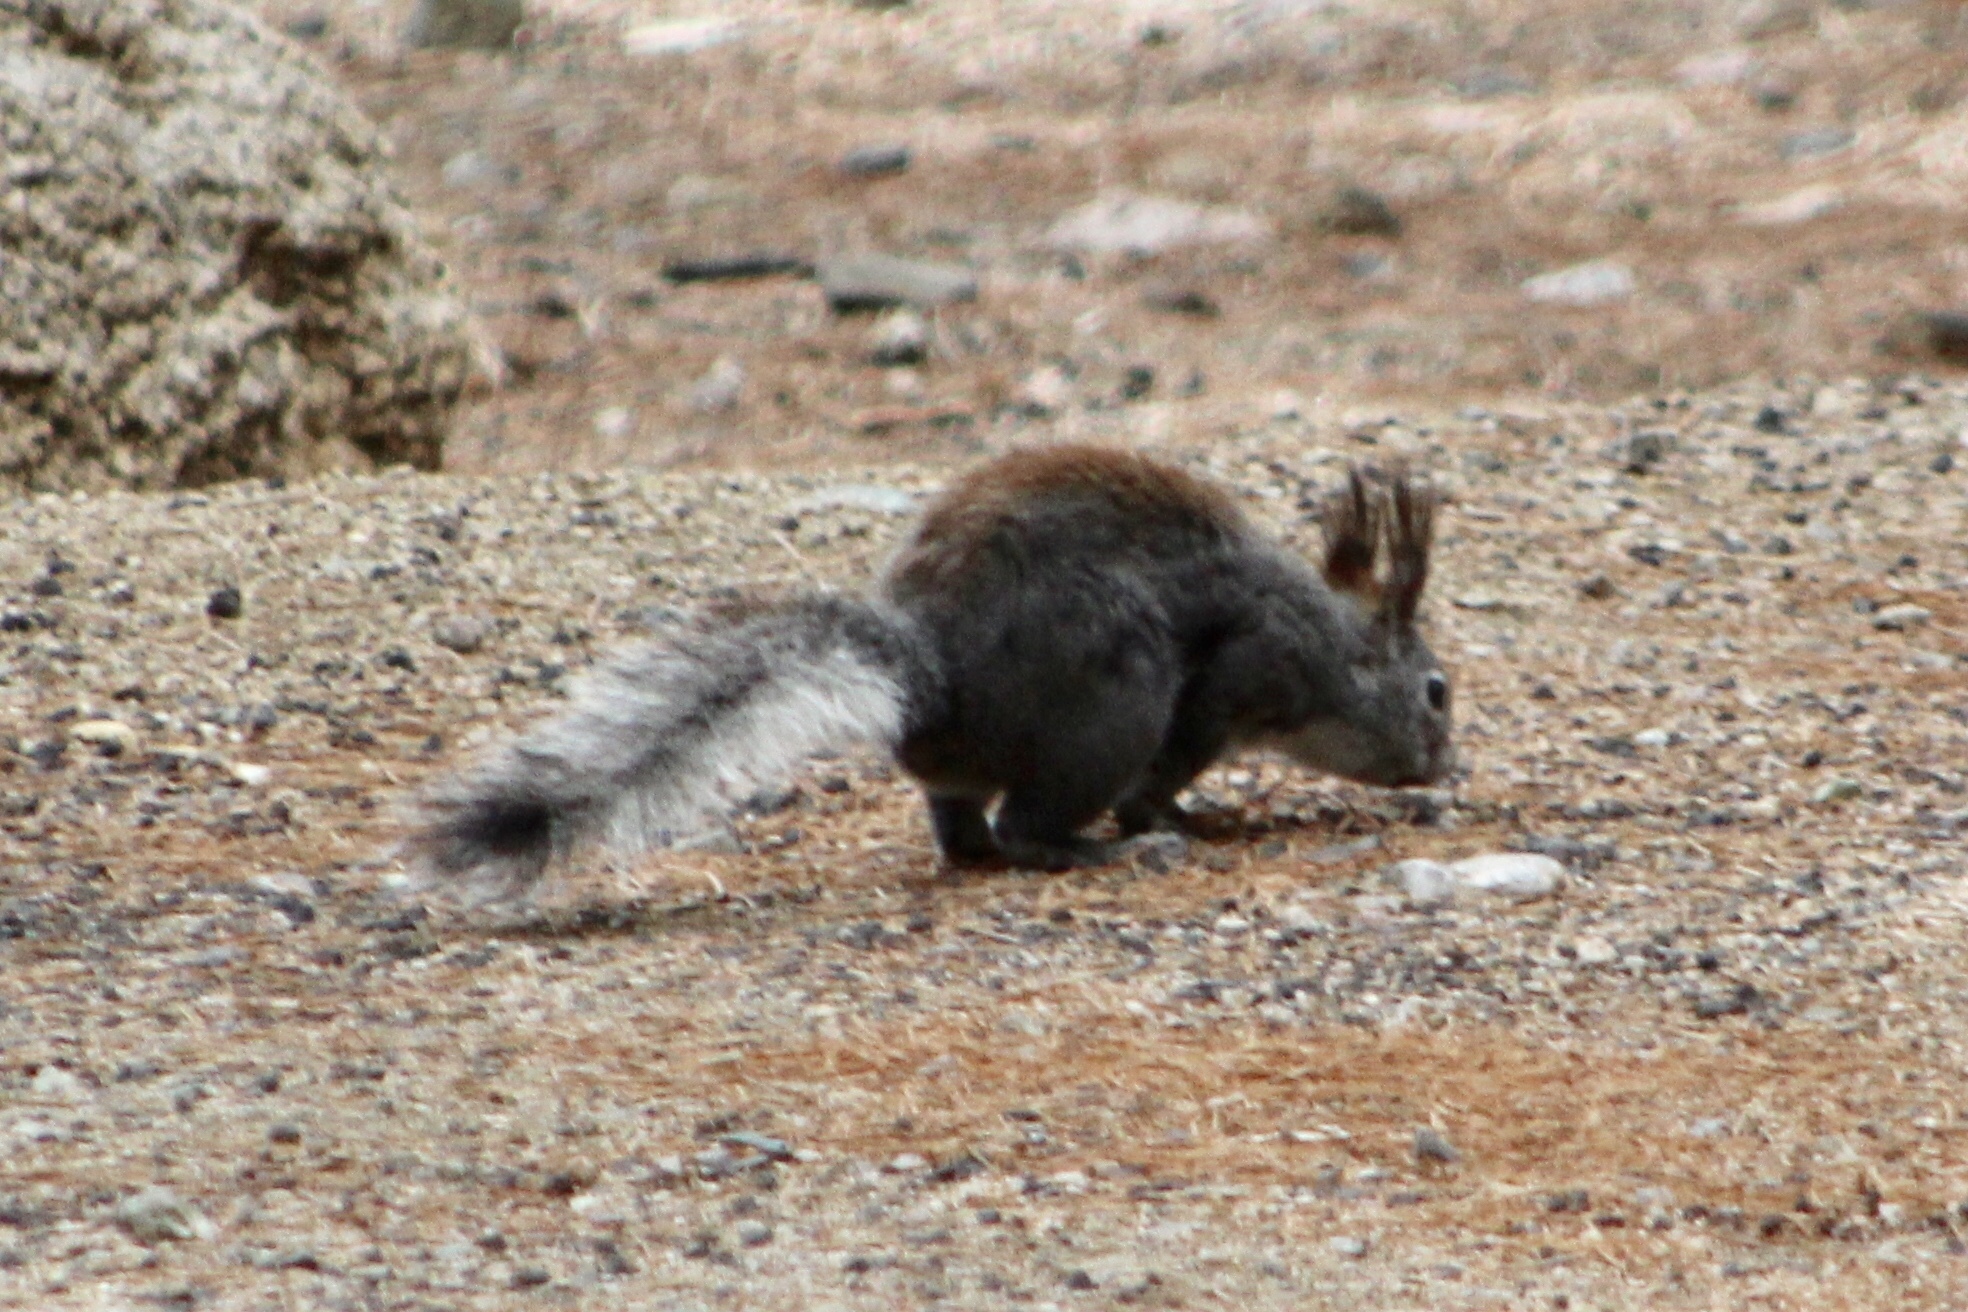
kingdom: Animalia
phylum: Chordata
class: Mammalia
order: Rodentia
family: Sciuridae
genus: Sciurus
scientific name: Sciurus aberti
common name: Abert's squirrel
